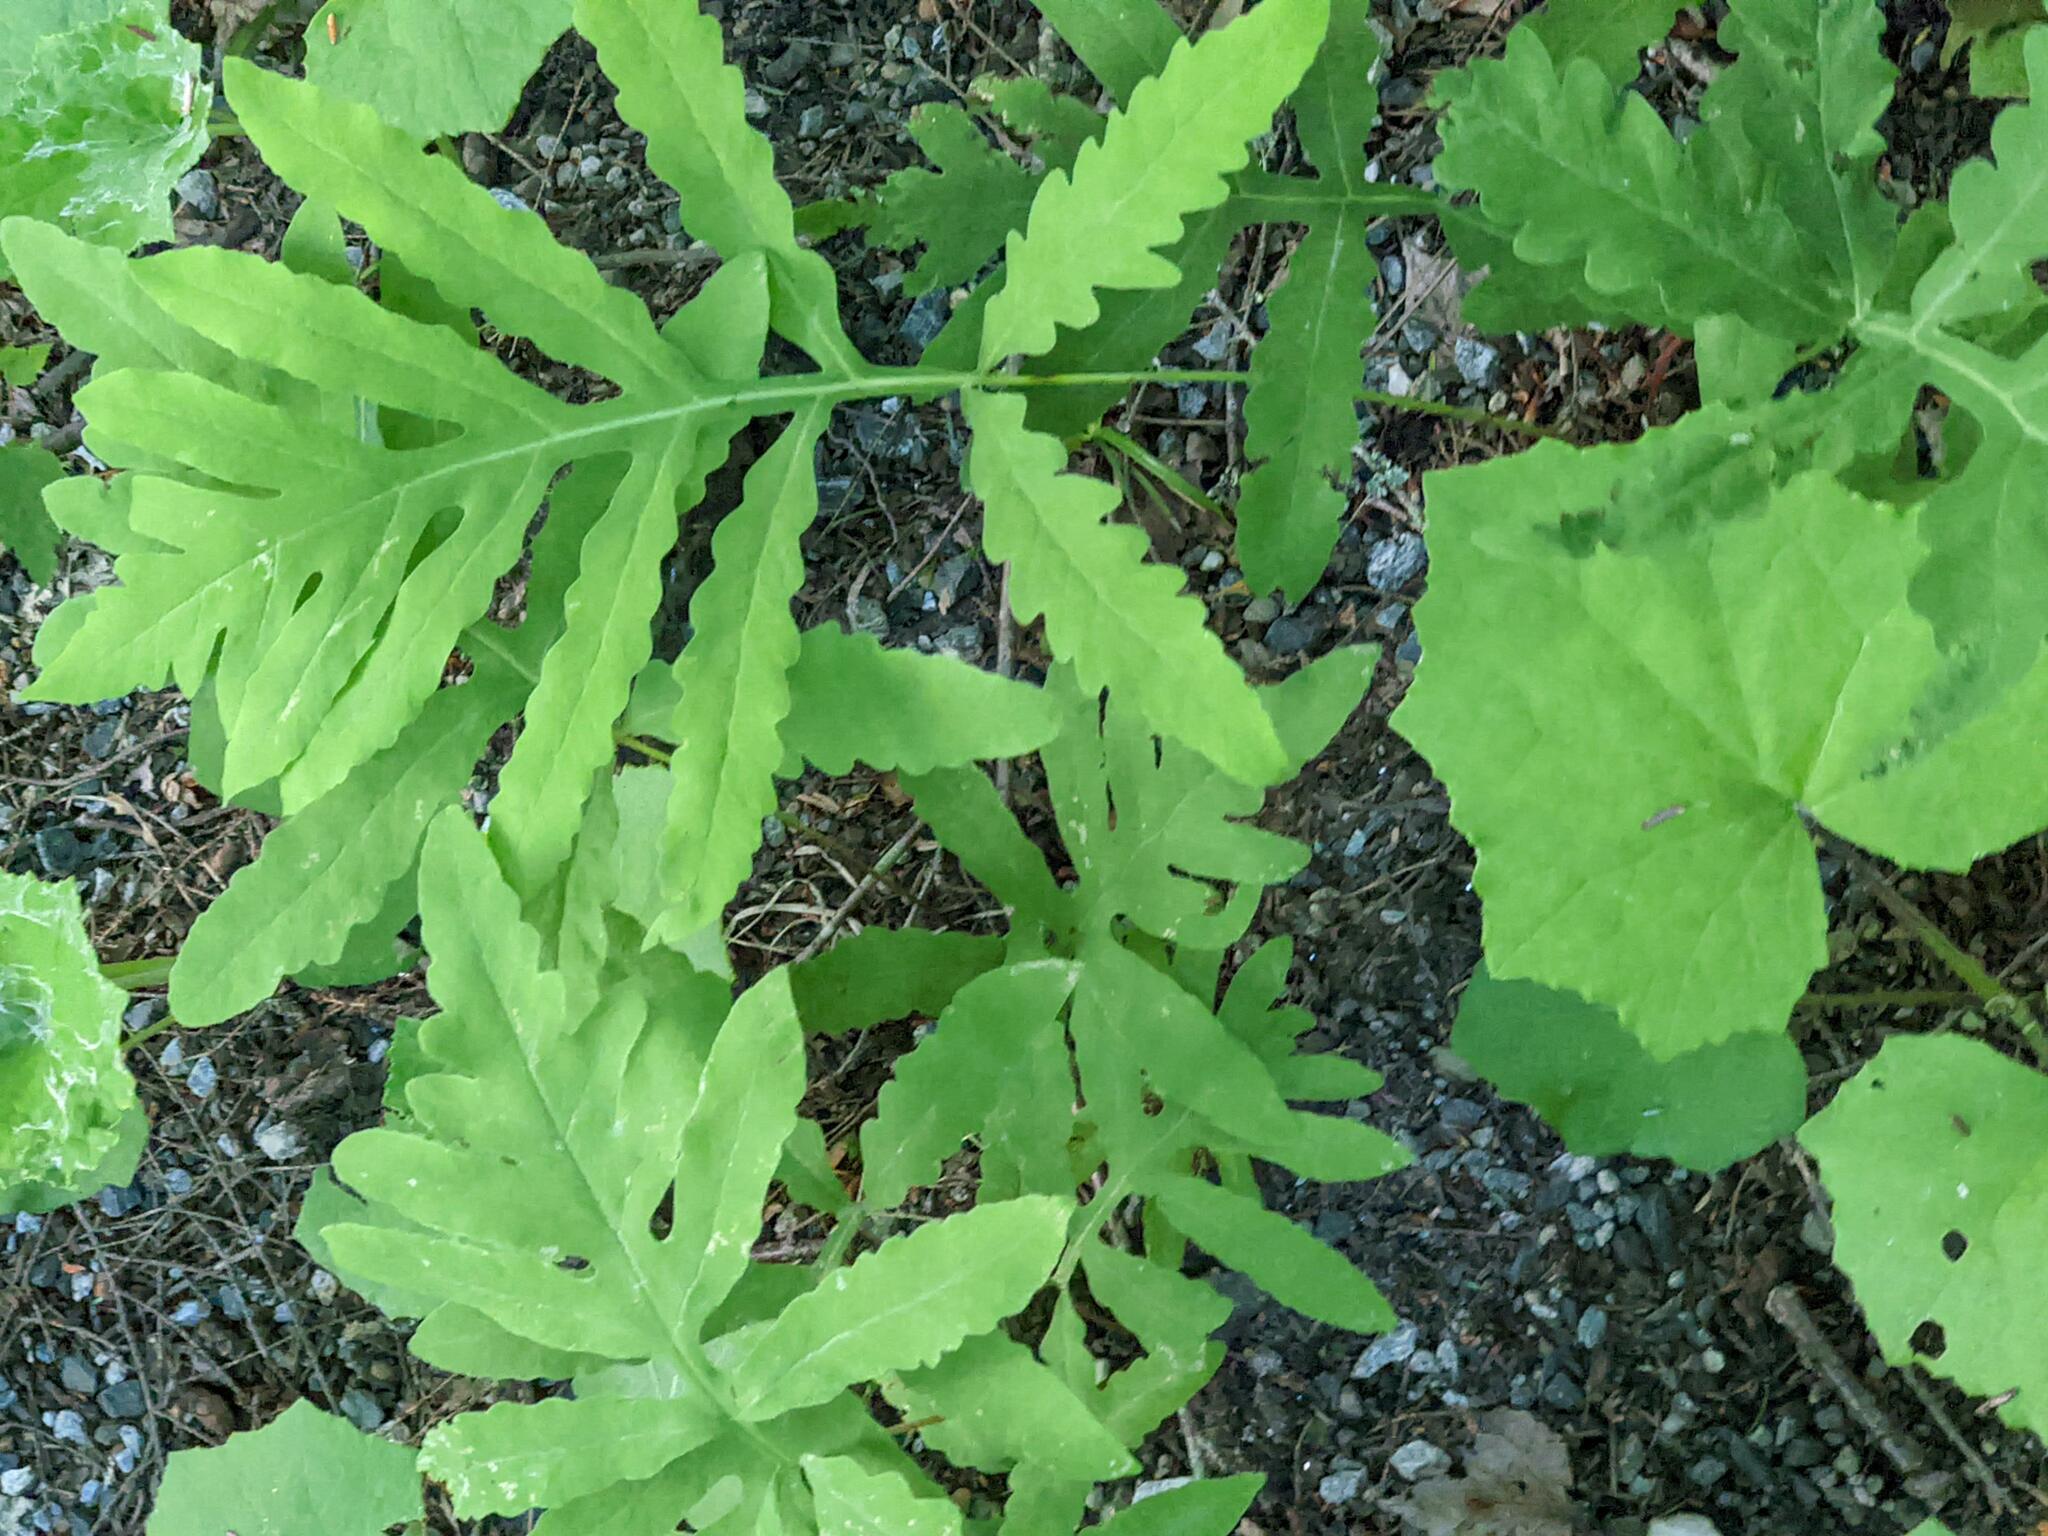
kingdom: Plantae
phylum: Tracheophyta
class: Polypodiopsida
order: Polypodiales
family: Onocleaceae
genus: Onoclea
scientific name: Onoclea sensibilis
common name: Sensitive fern
